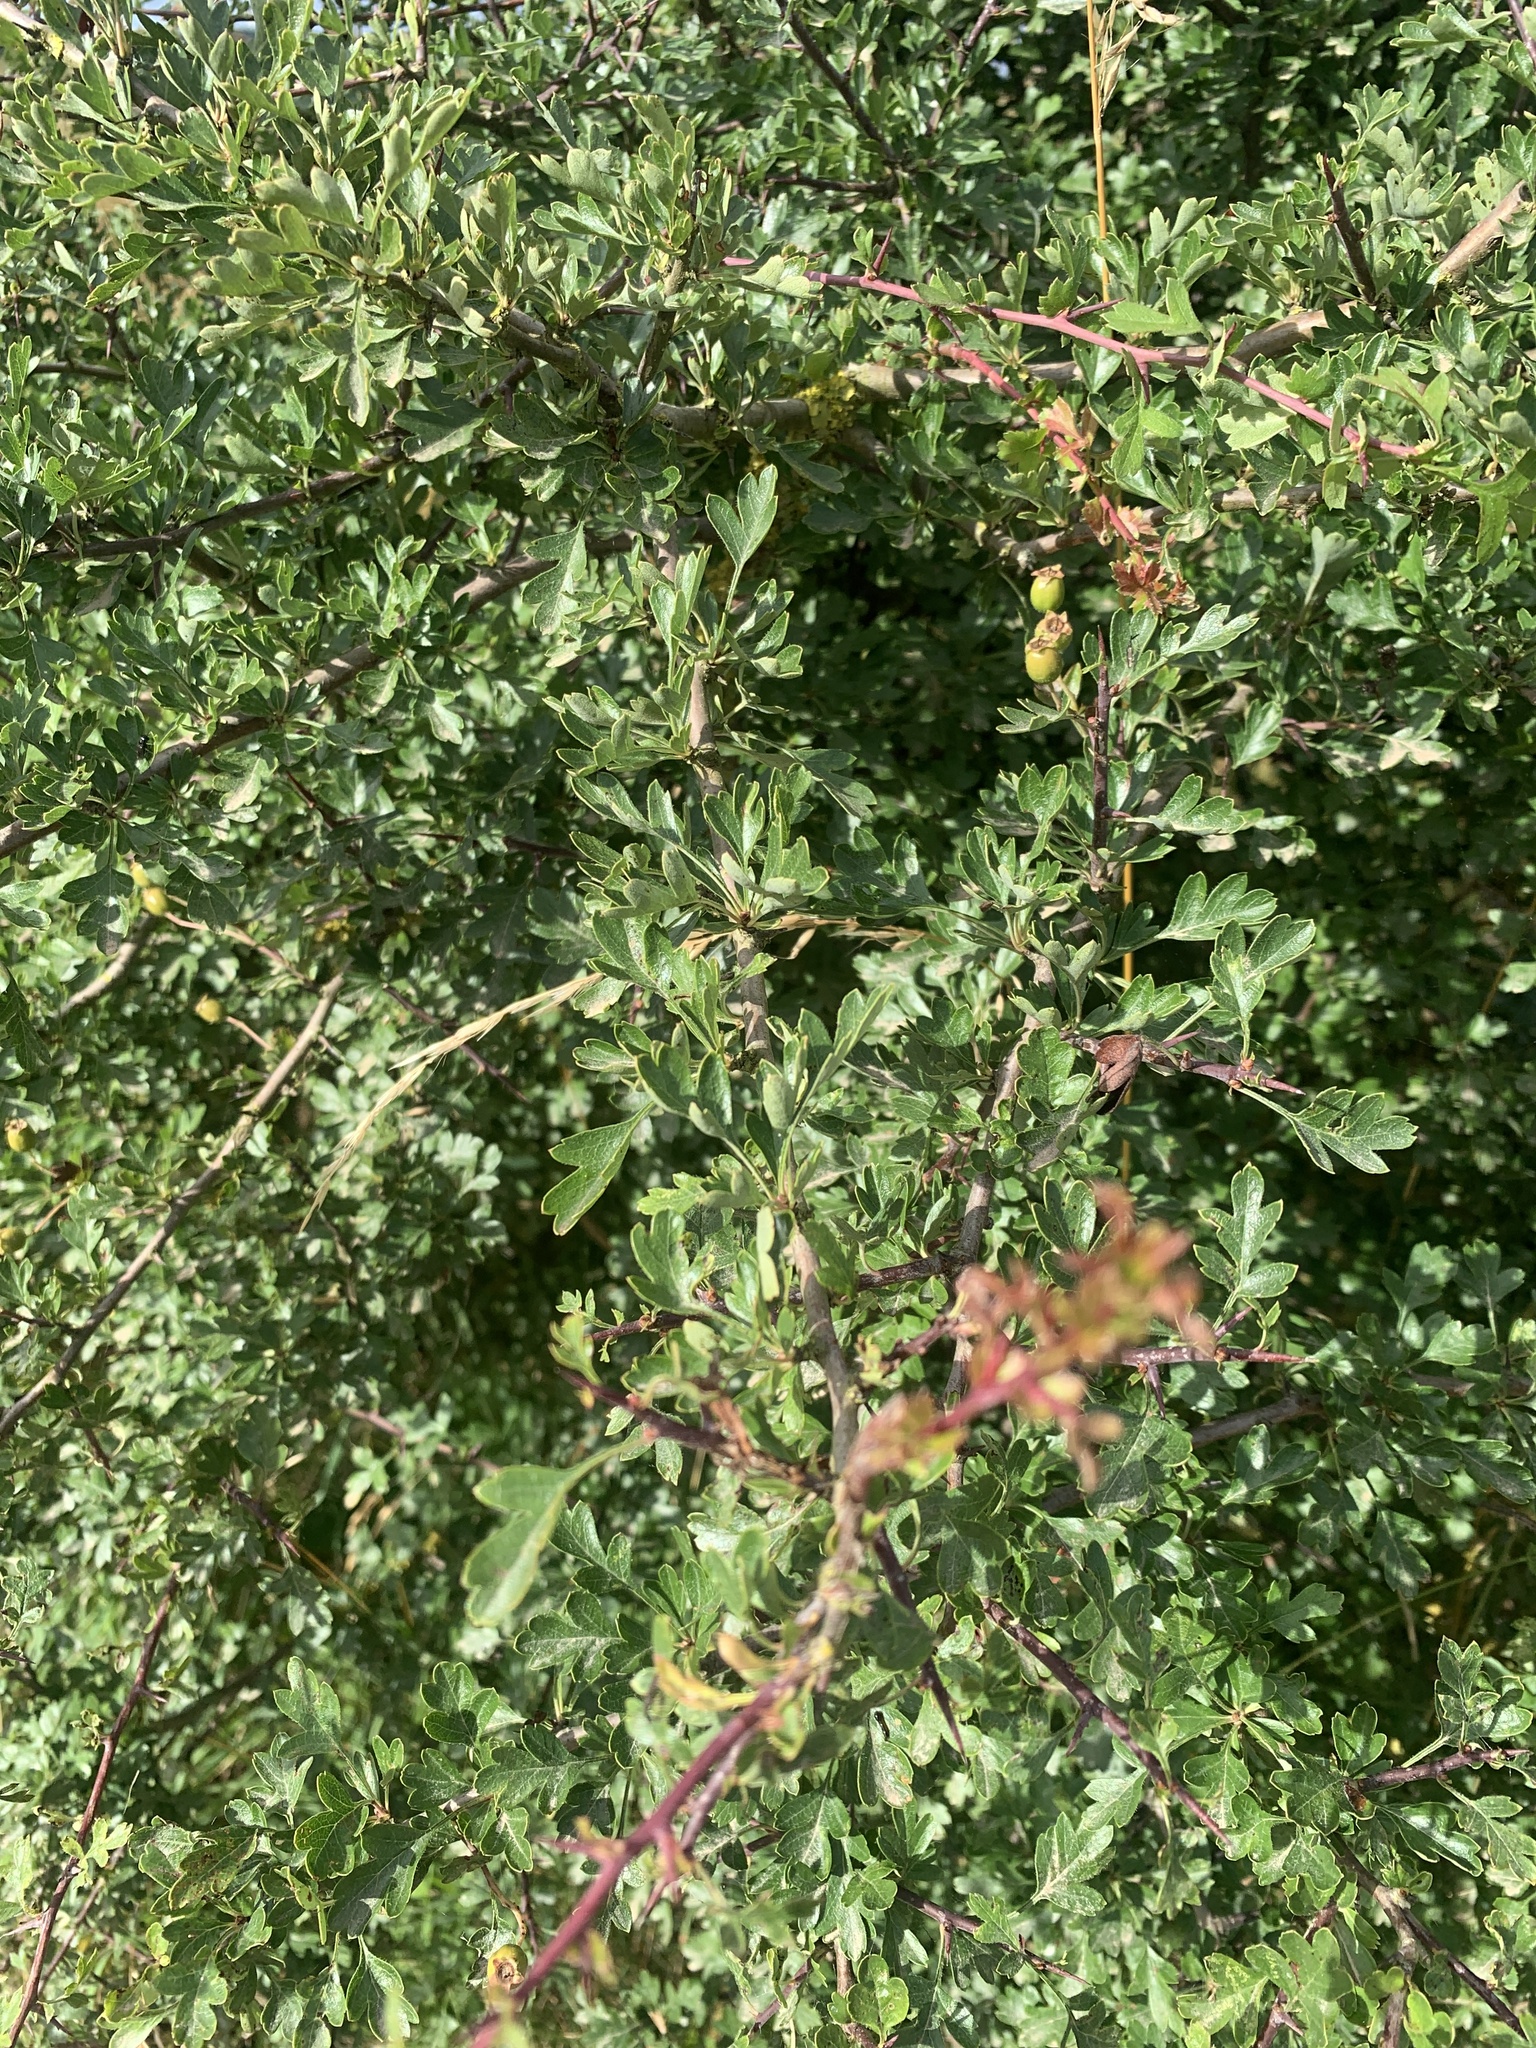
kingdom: Plantae
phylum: Tracheophyta
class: Magnoliopsida
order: Rosales
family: Rosaceae
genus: Crataegus
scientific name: Crataegus monogyna
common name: Hawthorn
